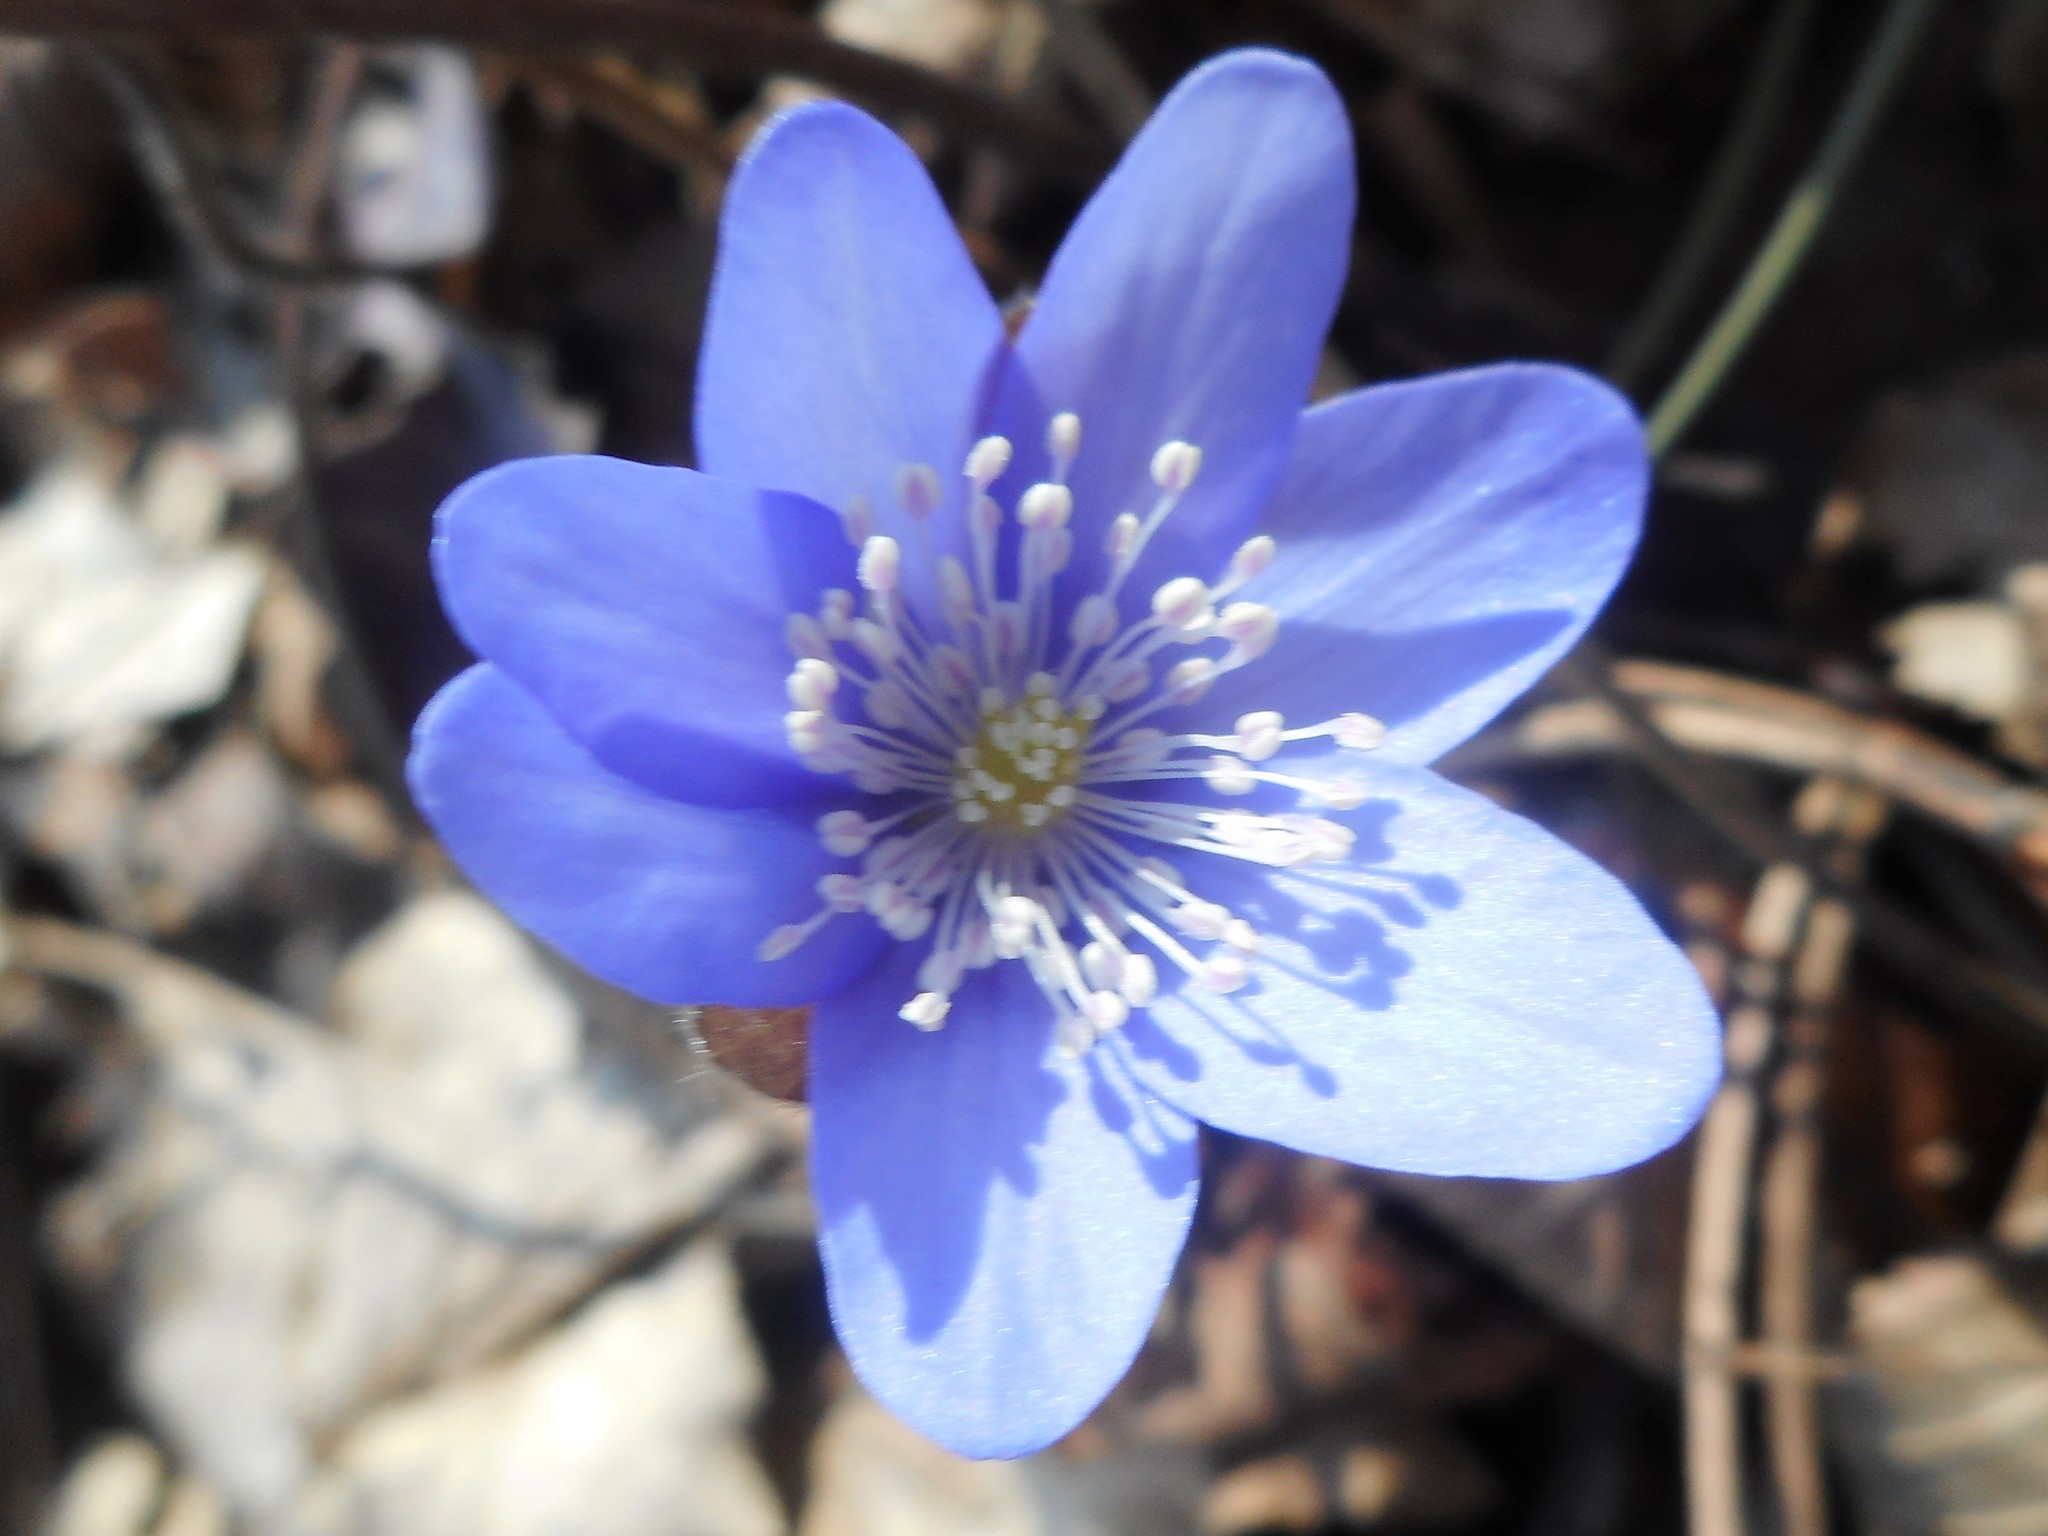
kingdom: Plantae
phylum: Tracheophyta
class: Magnoliopsida
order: Ranunculales
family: Ranunculaceae
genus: Hepatica
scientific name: Hepatica nobilis
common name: Liverleaf
